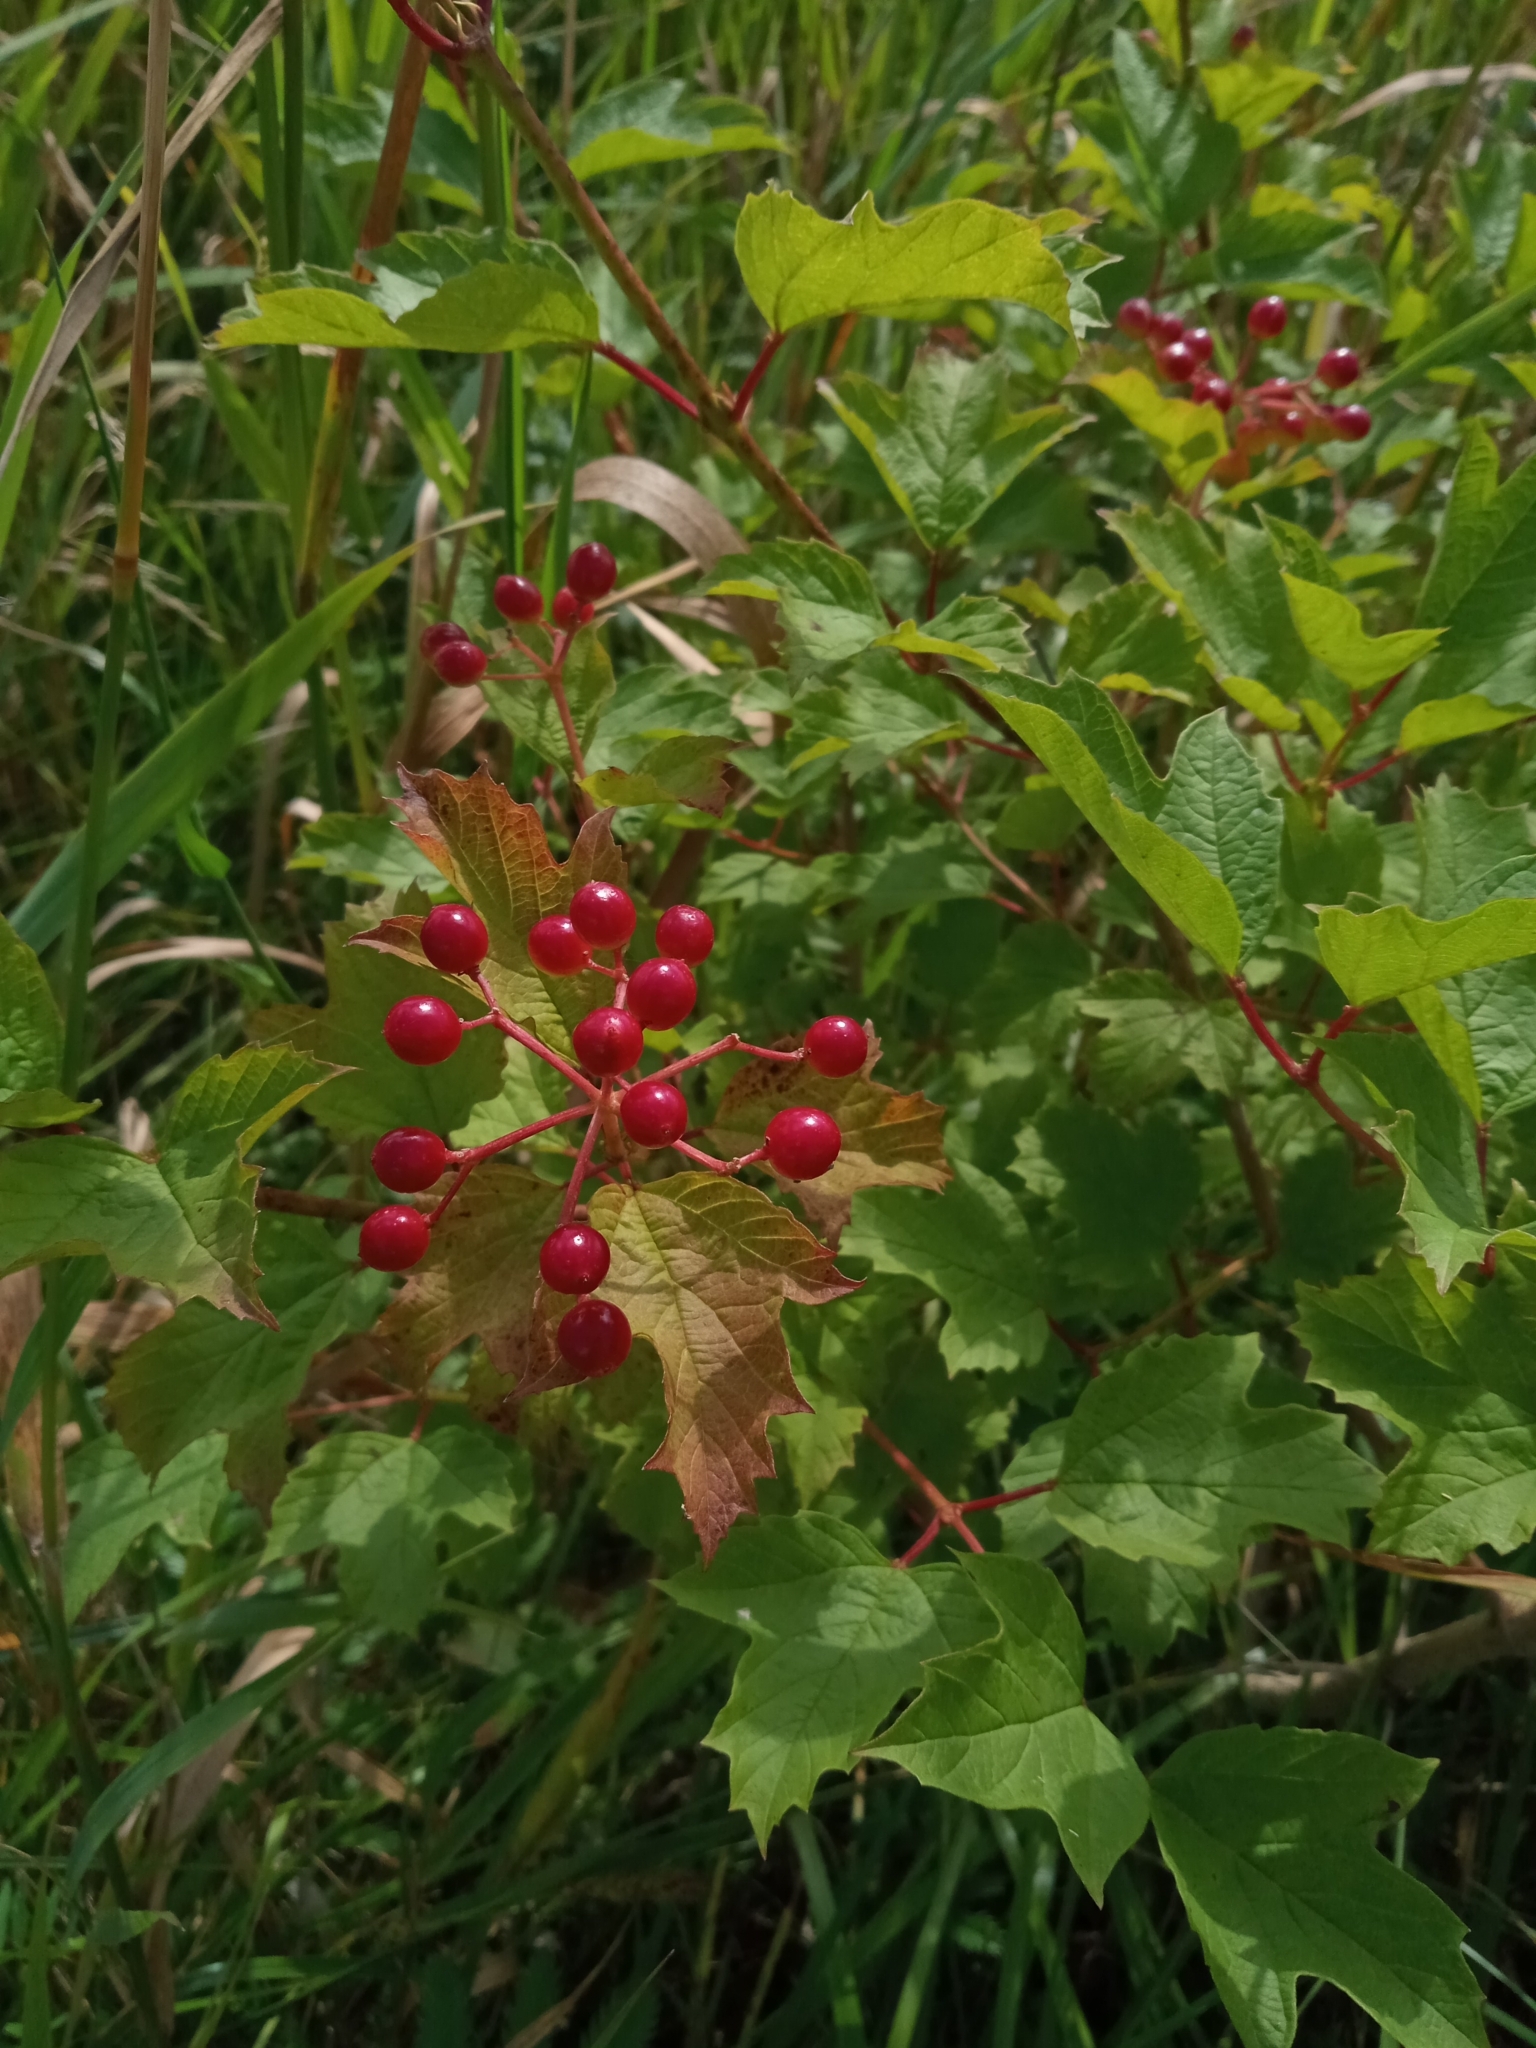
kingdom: Plantae
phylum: Tracheophyta
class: Magnoliopsida
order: Dipsacales
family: Viburnaceae
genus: Viburnum
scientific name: Viburnum opulus
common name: Guelder-rose
